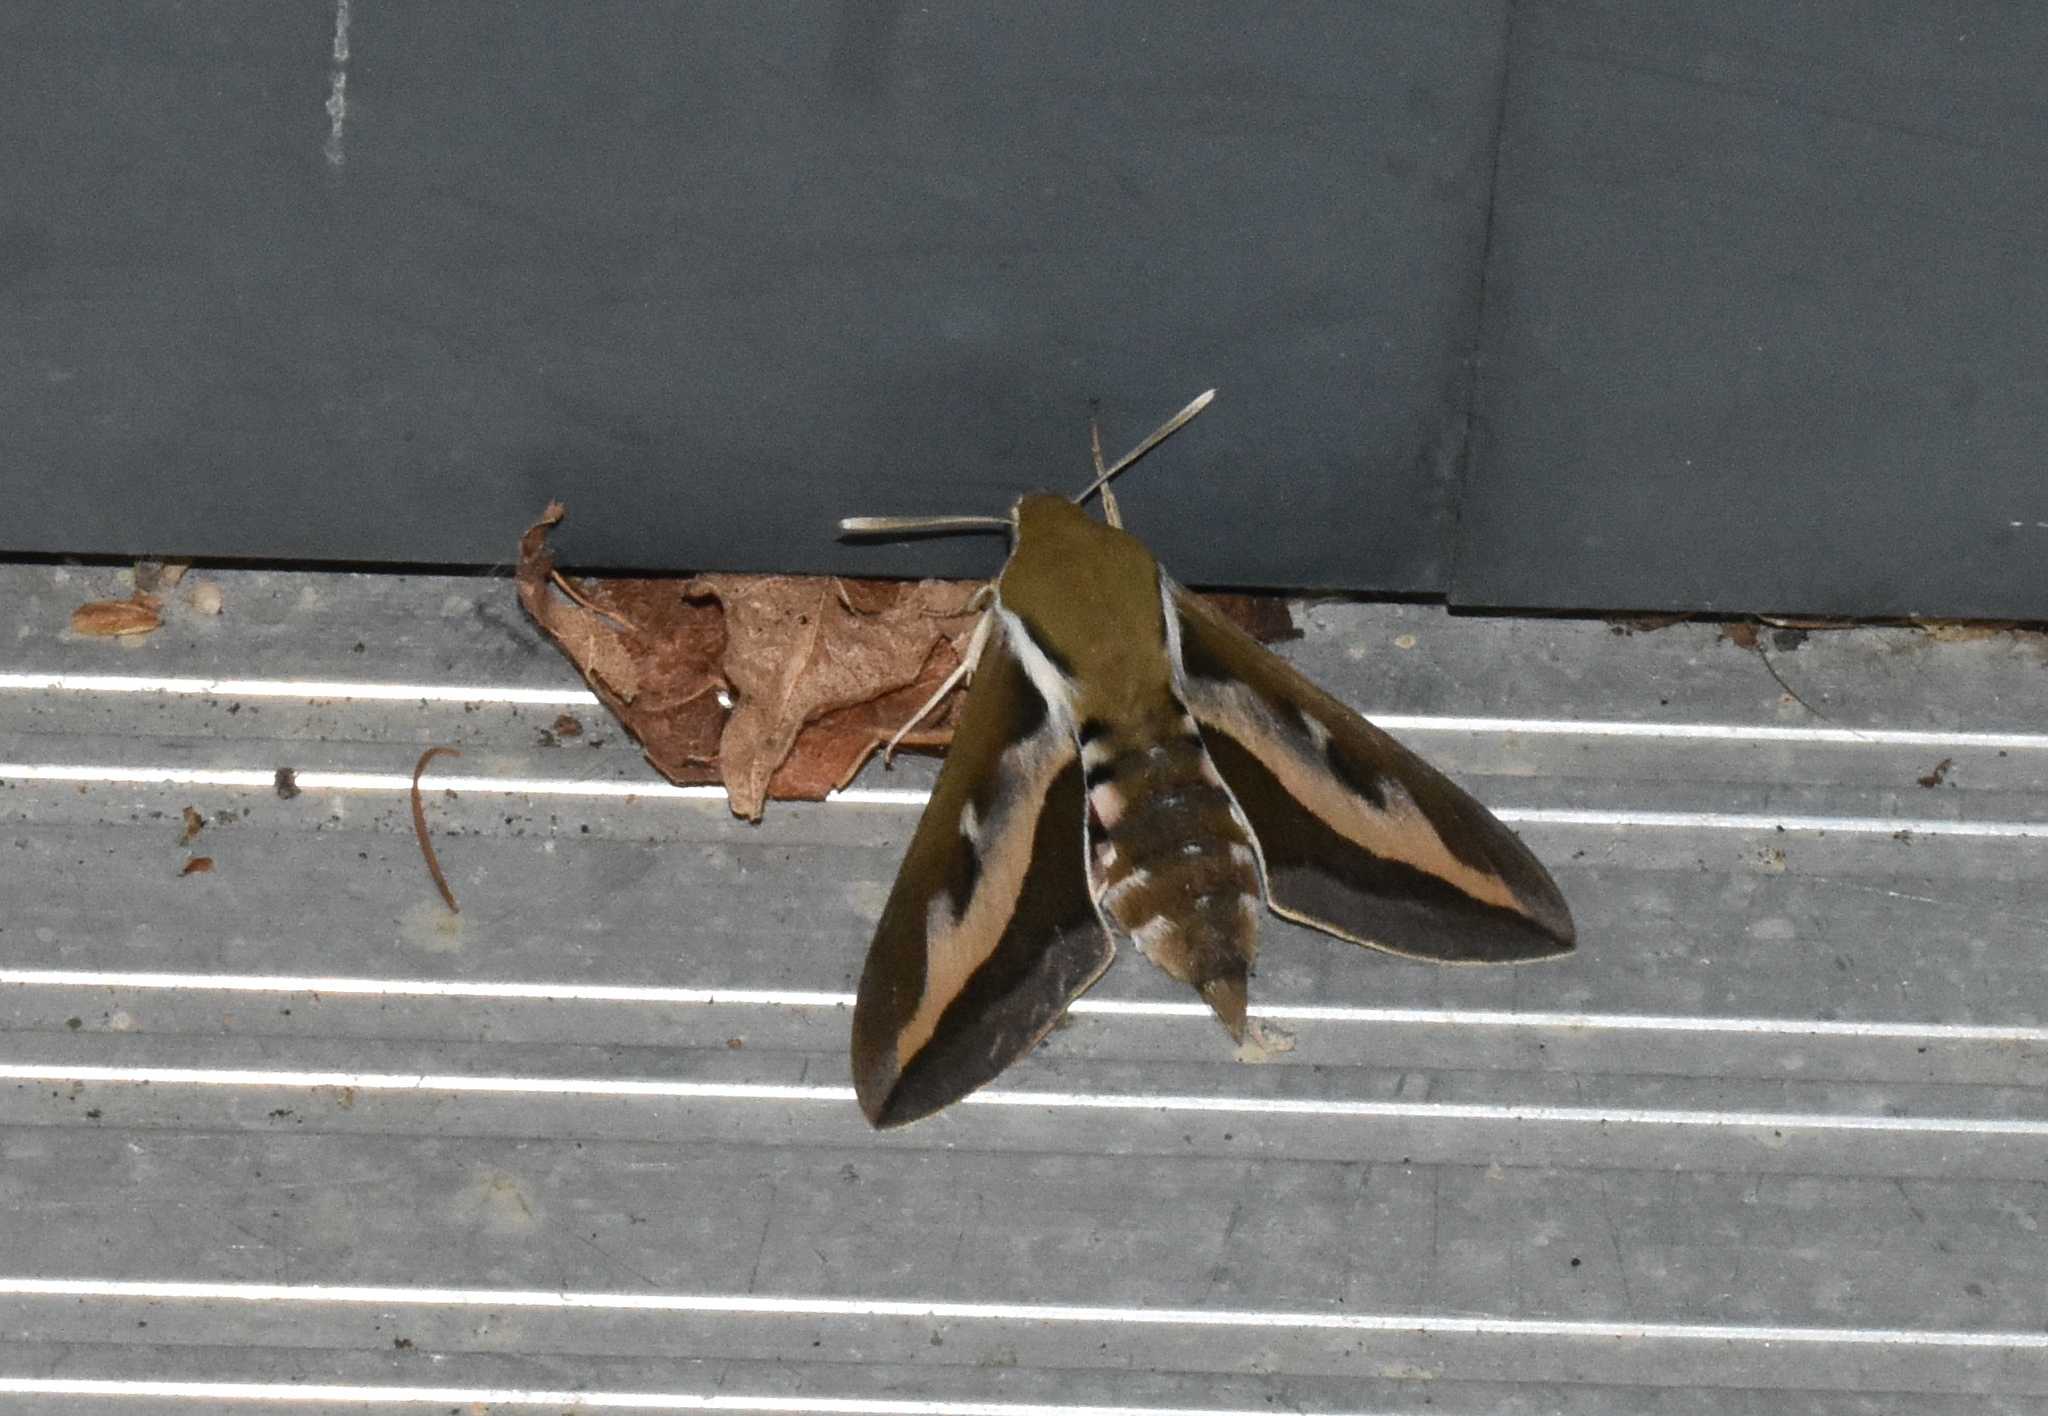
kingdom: Animalia
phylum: Arthropoda
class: Insecta
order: Lepidoptera
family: Sphingidae
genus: Hyles
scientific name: Hyles gallii
